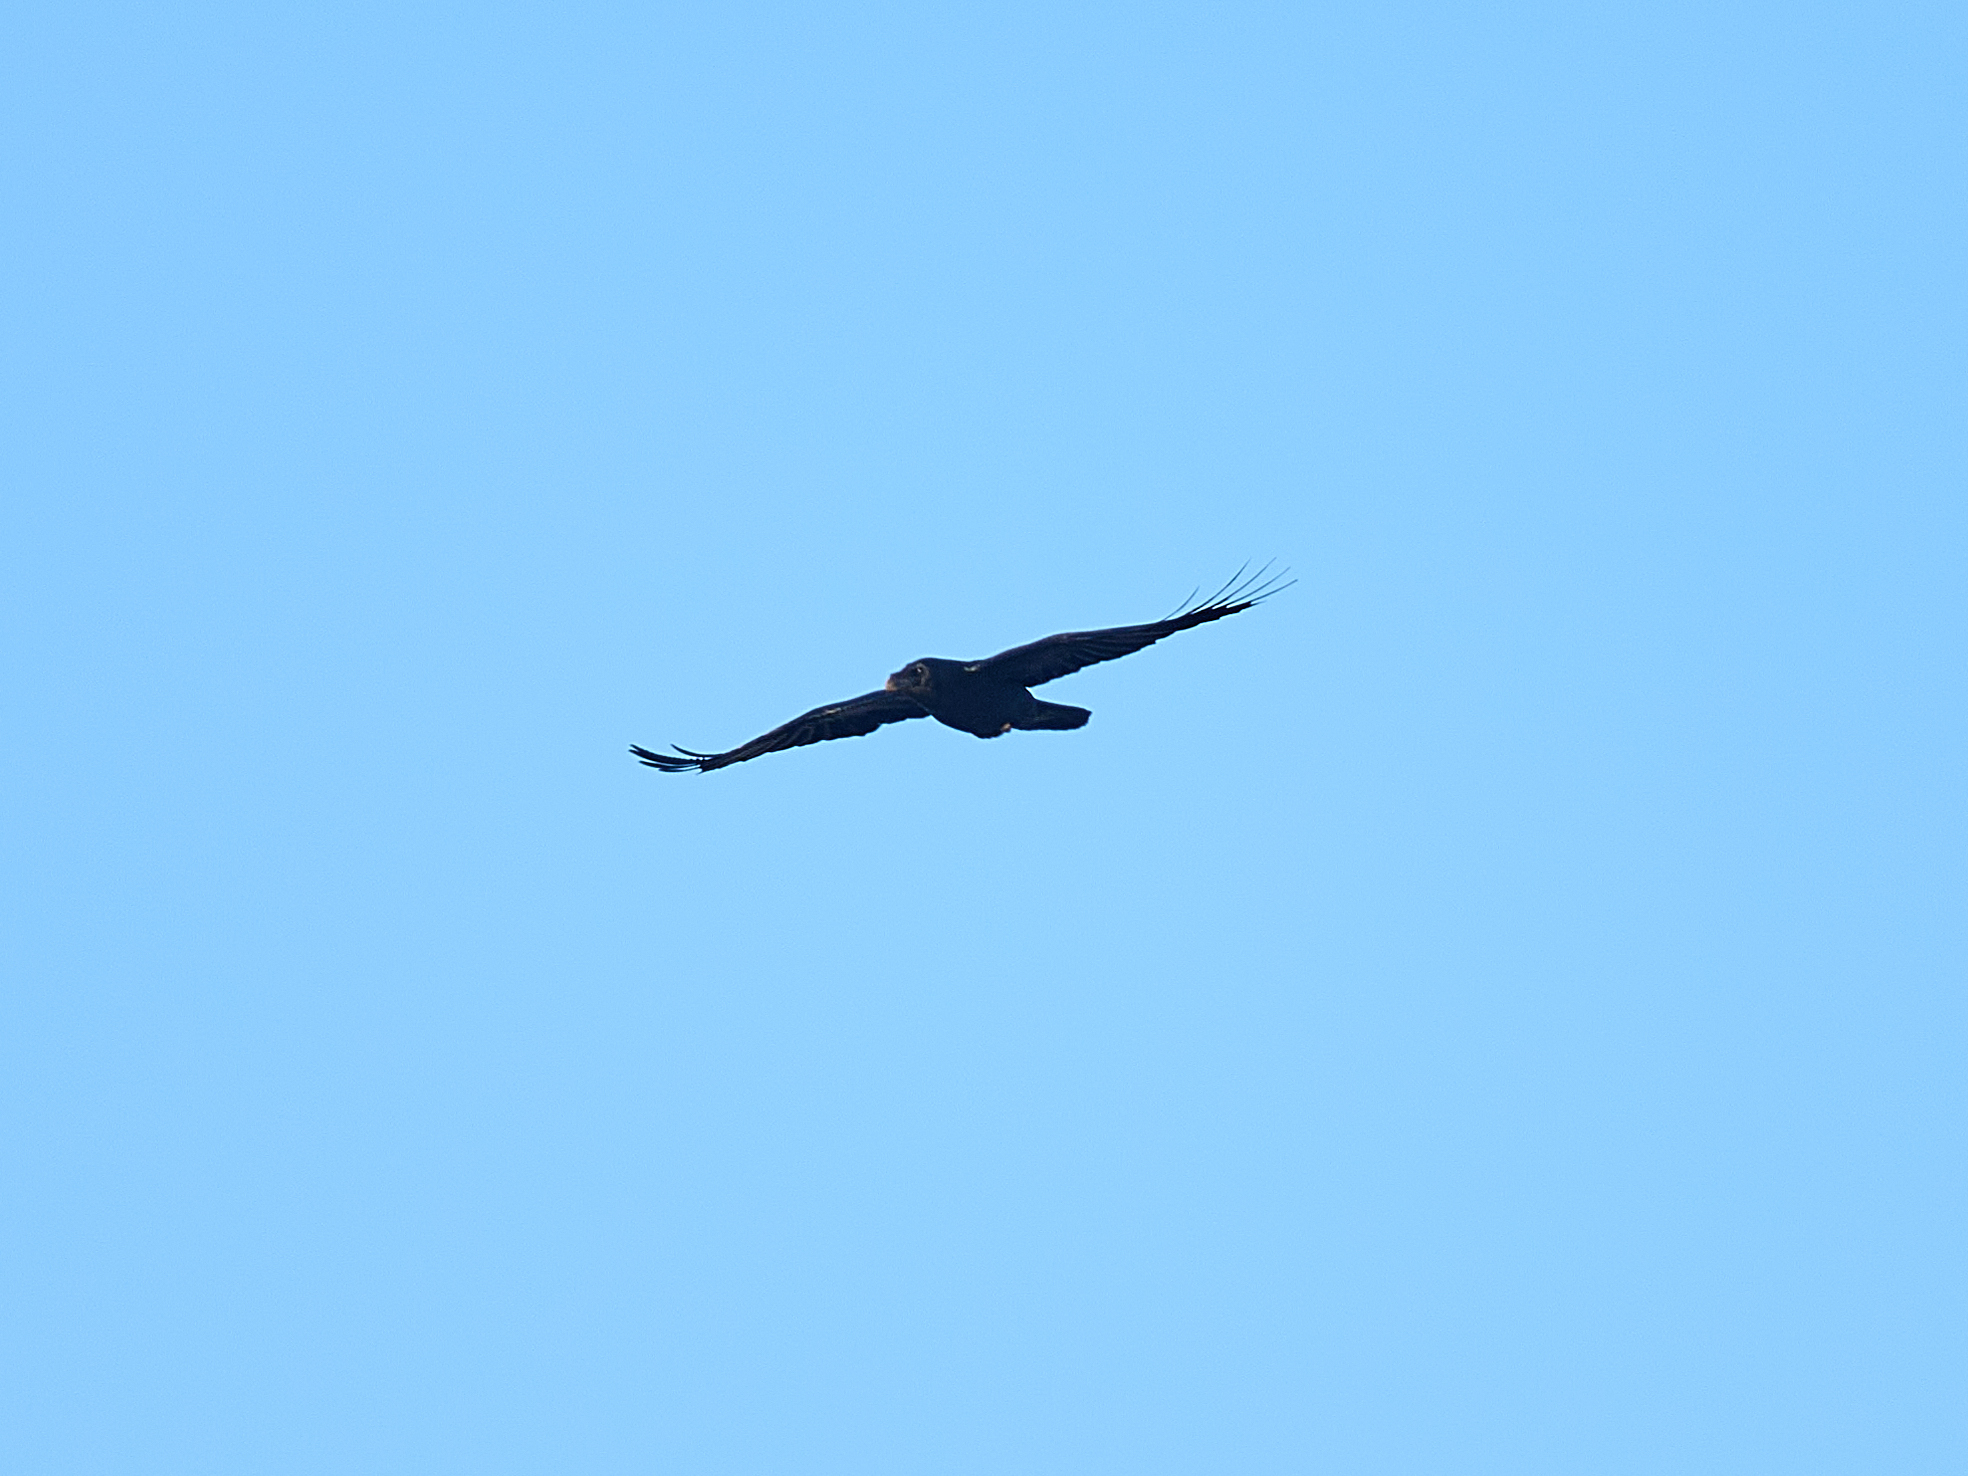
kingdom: Animalia
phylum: Chordata
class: Aves
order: Passeriformes
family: Corvidae
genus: Corvus
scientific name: Corvus corax
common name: Common raven
